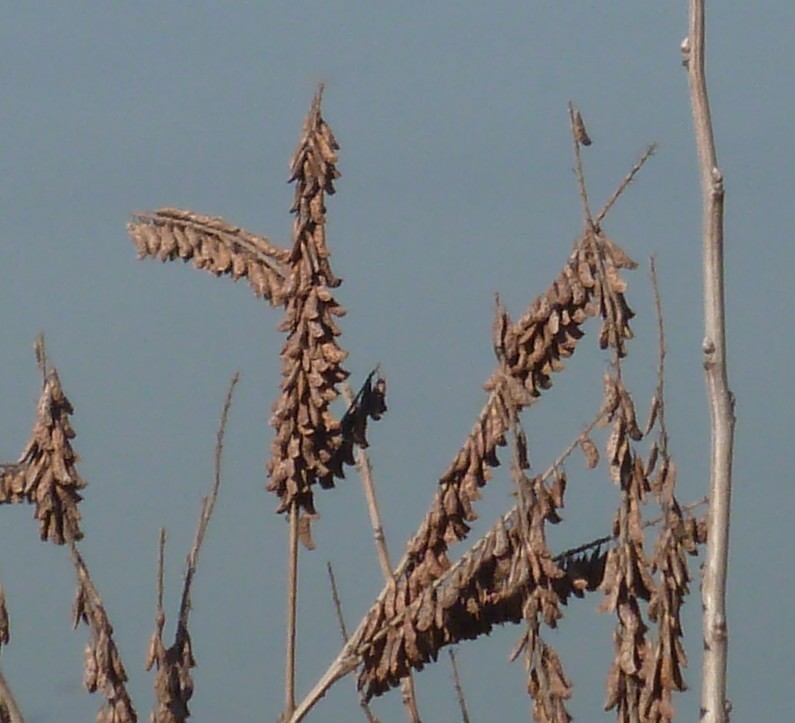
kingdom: Plantae
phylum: Tracheophyta
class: Magnoliopsida
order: Fabales
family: Fabaceae
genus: Amorpha
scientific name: Amorpha fruticosa
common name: False indigo
